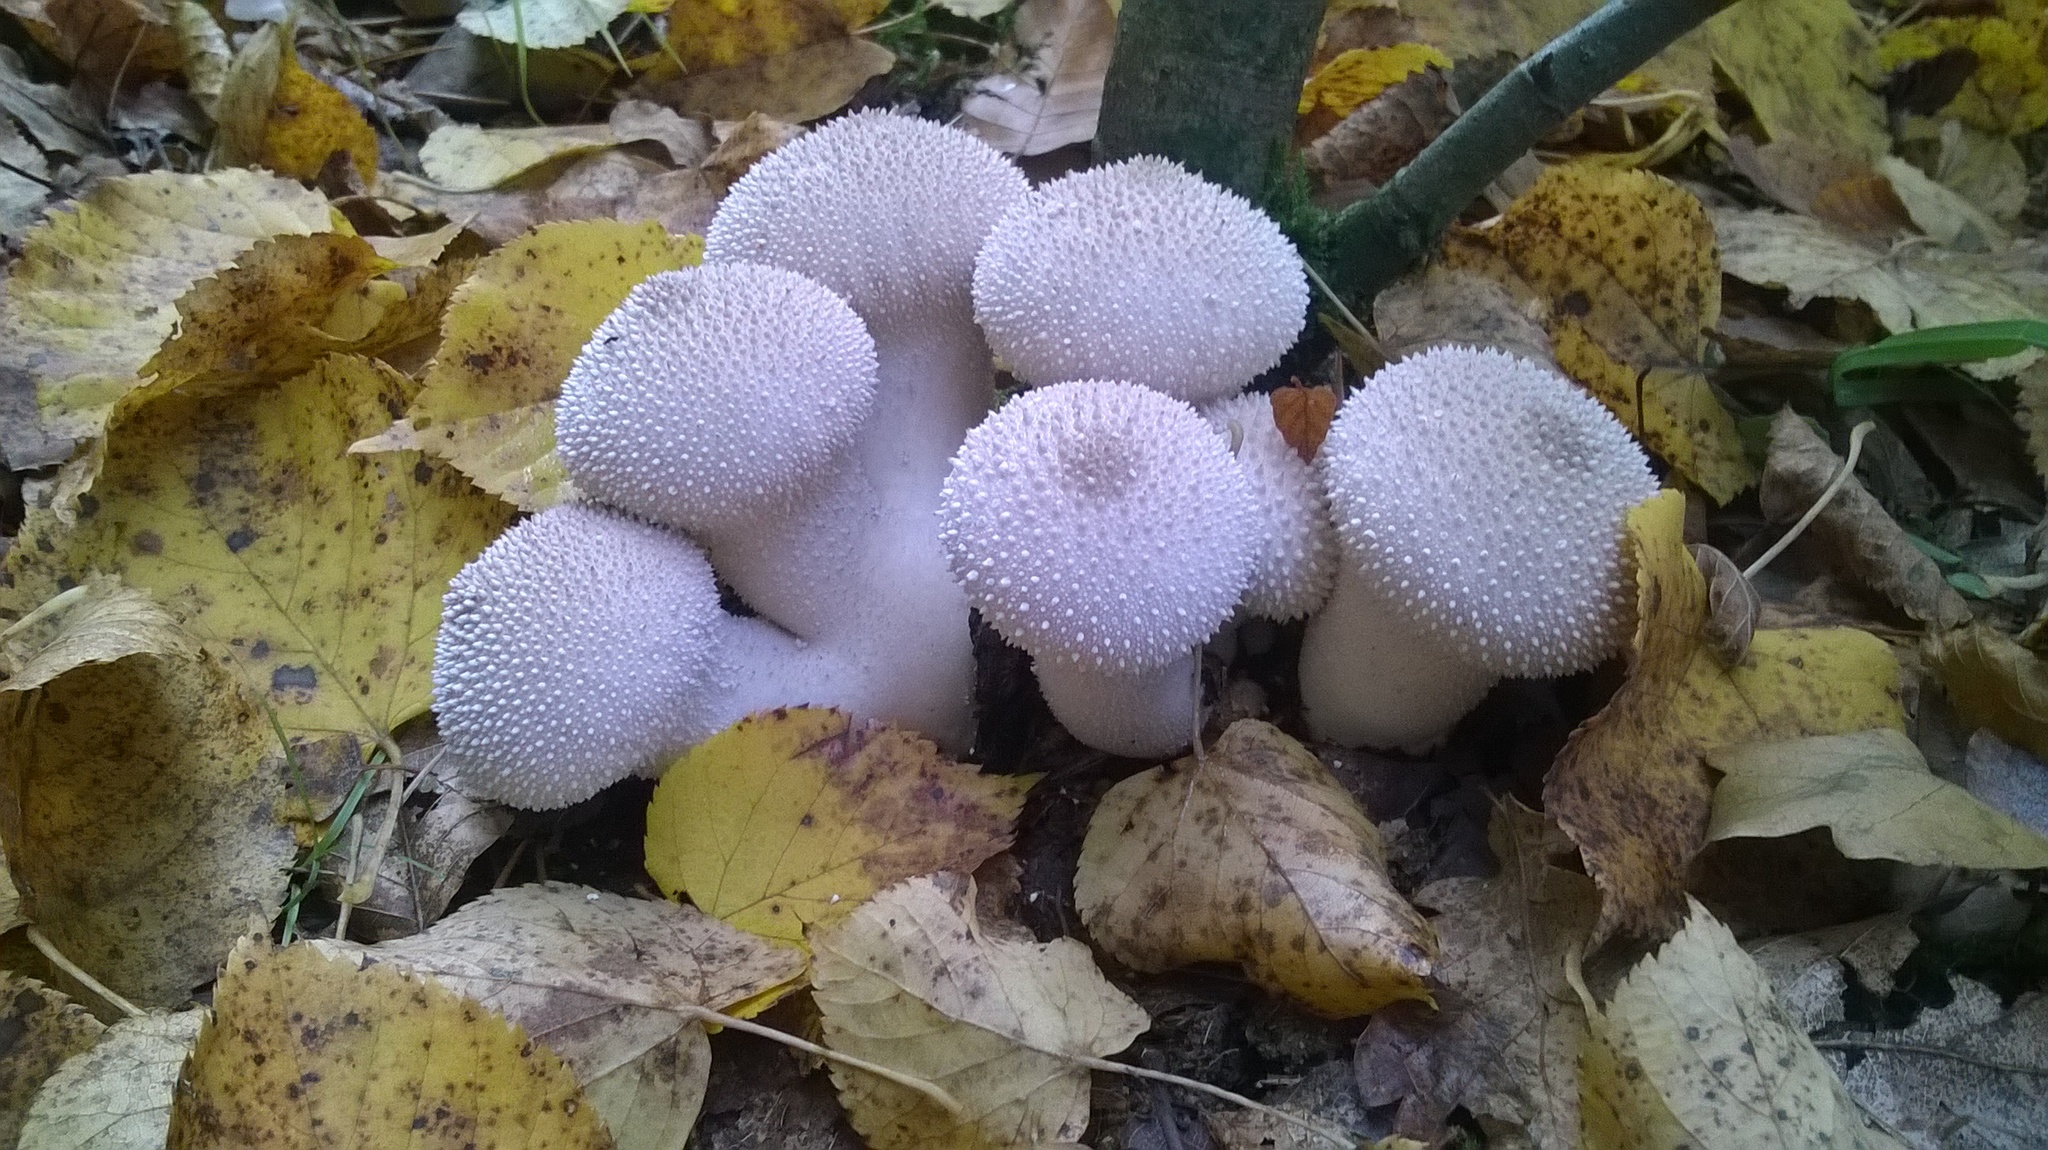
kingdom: Fungi
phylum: Basidiomycota
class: Agaricomycetes
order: Agaricales
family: Lycoperdaceae
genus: Lycoperdon
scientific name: Lycoperdon perlatum
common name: Common puffball
